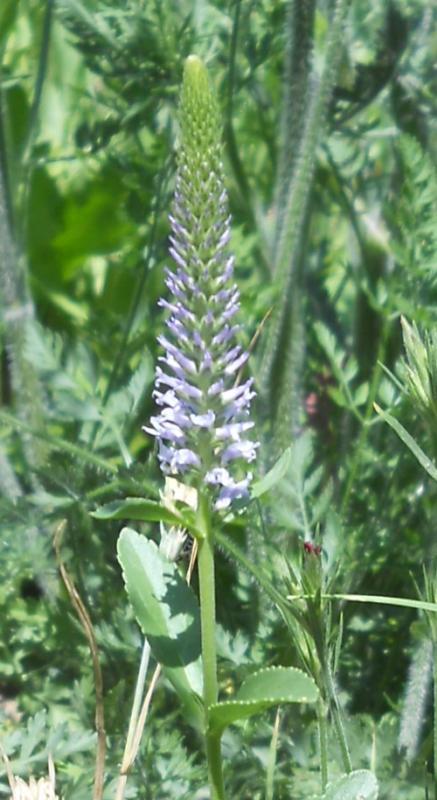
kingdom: Plantae
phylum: Tracheophyta
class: Magnoliopsida
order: Lamiales
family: Plantaginaceae
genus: Veronica
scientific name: Veronica orchidea
